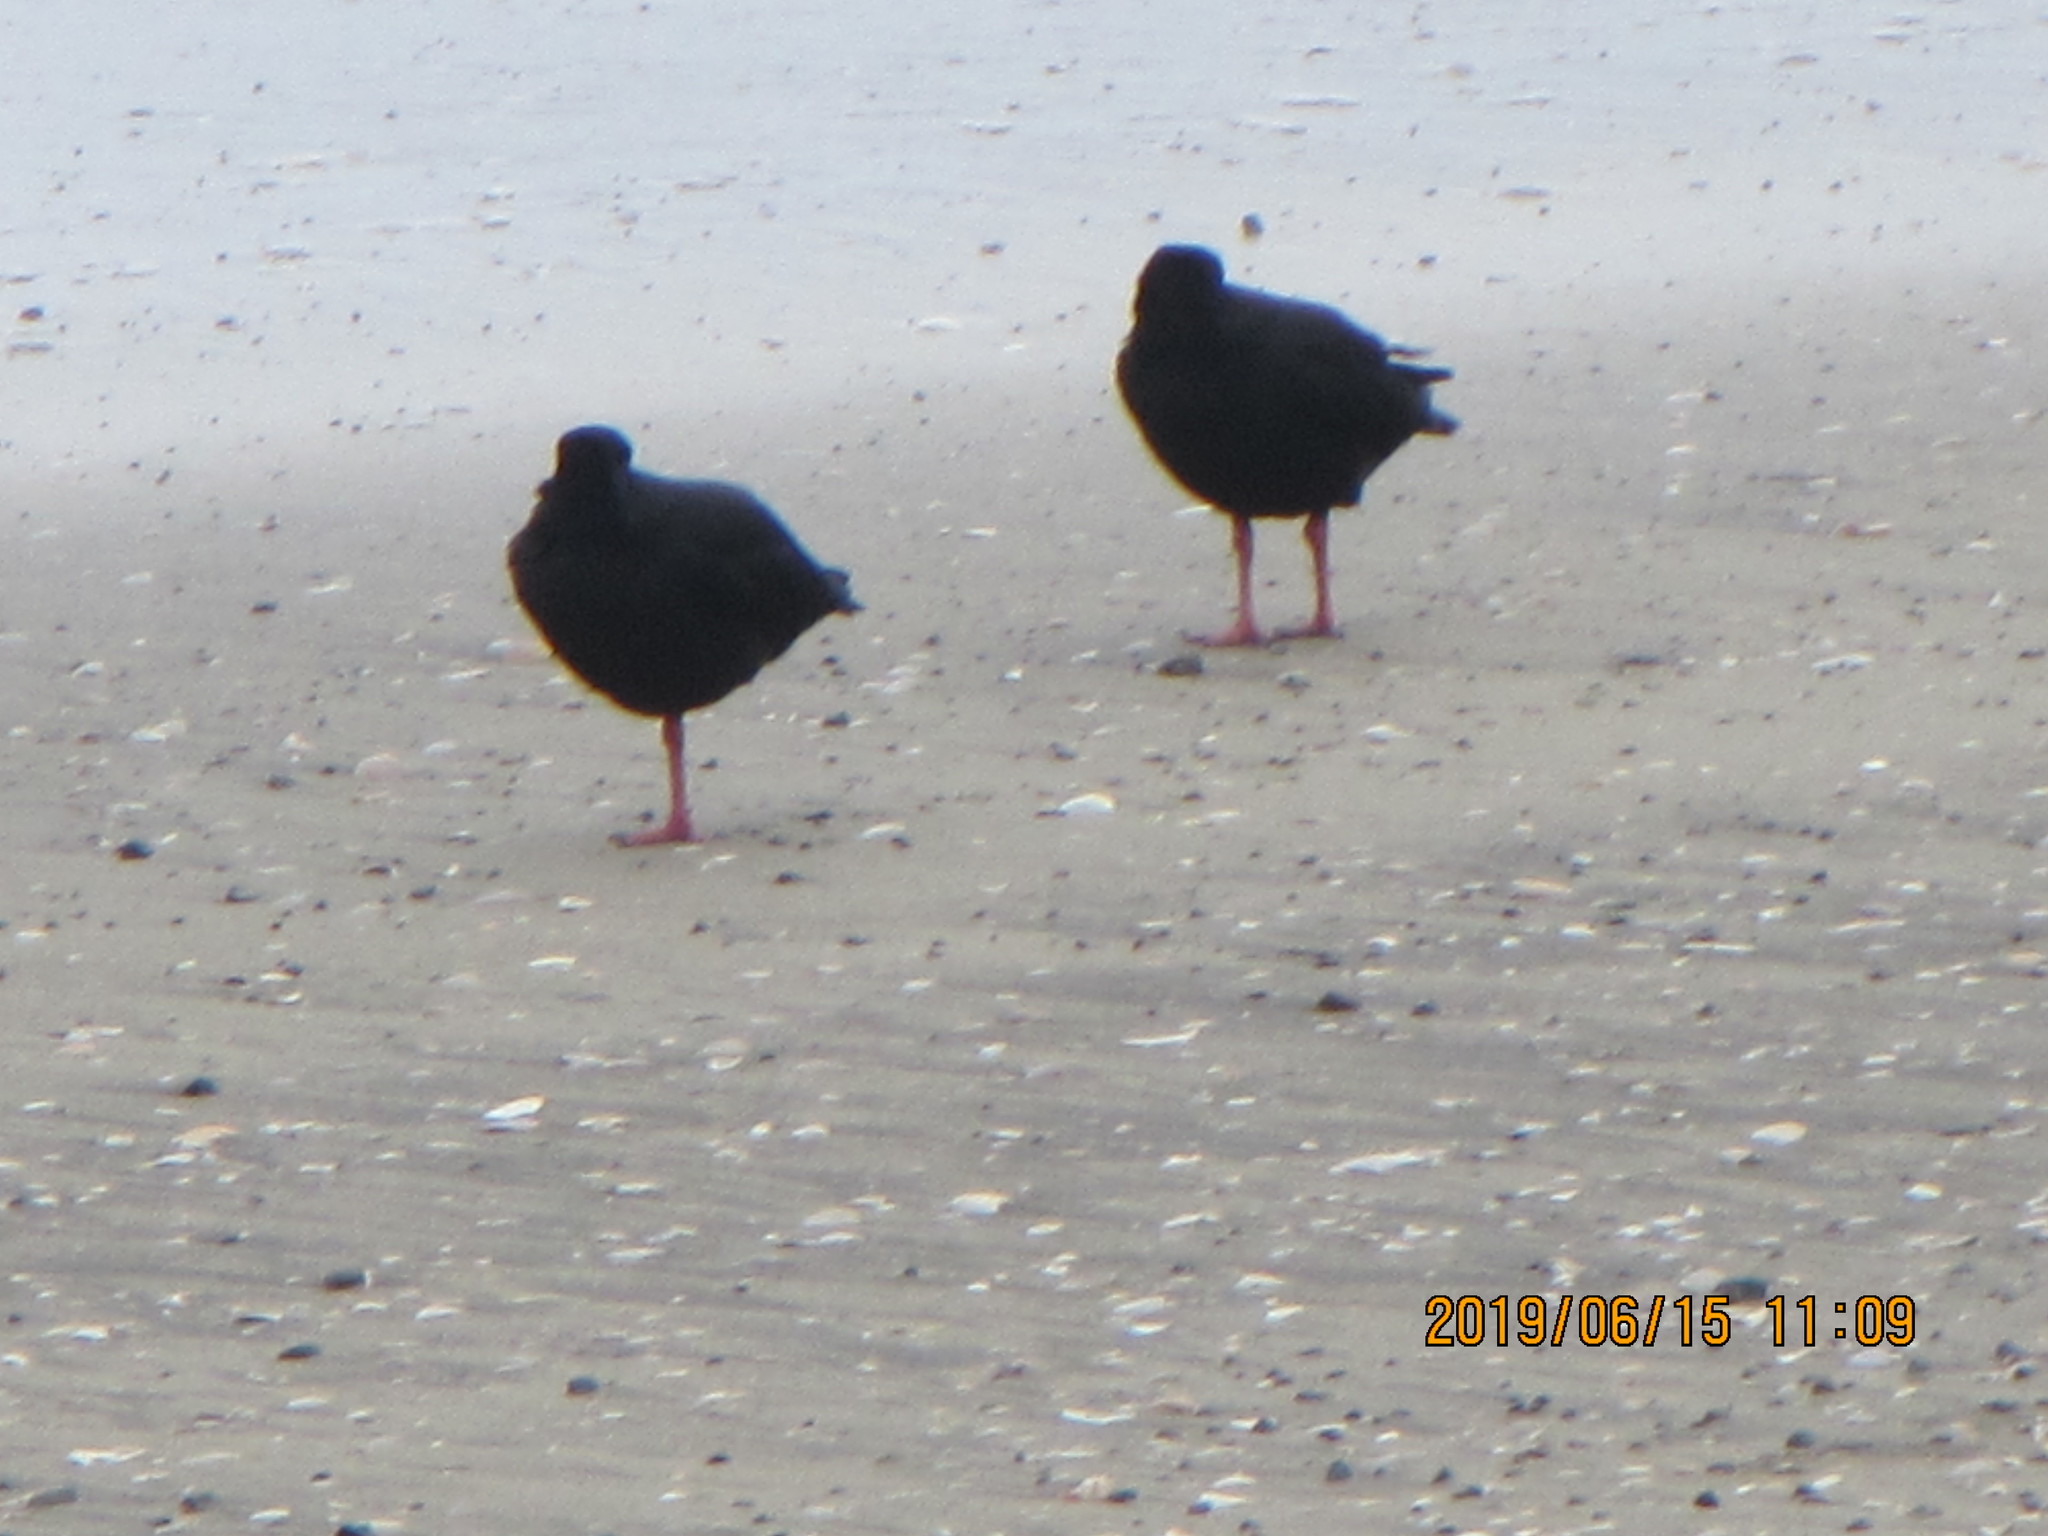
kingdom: Animalia
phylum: Chordata
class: Aves
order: Charadriiformes
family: Haematopodidae
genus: Haematopus
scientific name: Haematopus unicolor
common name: Variable oystercatcher
